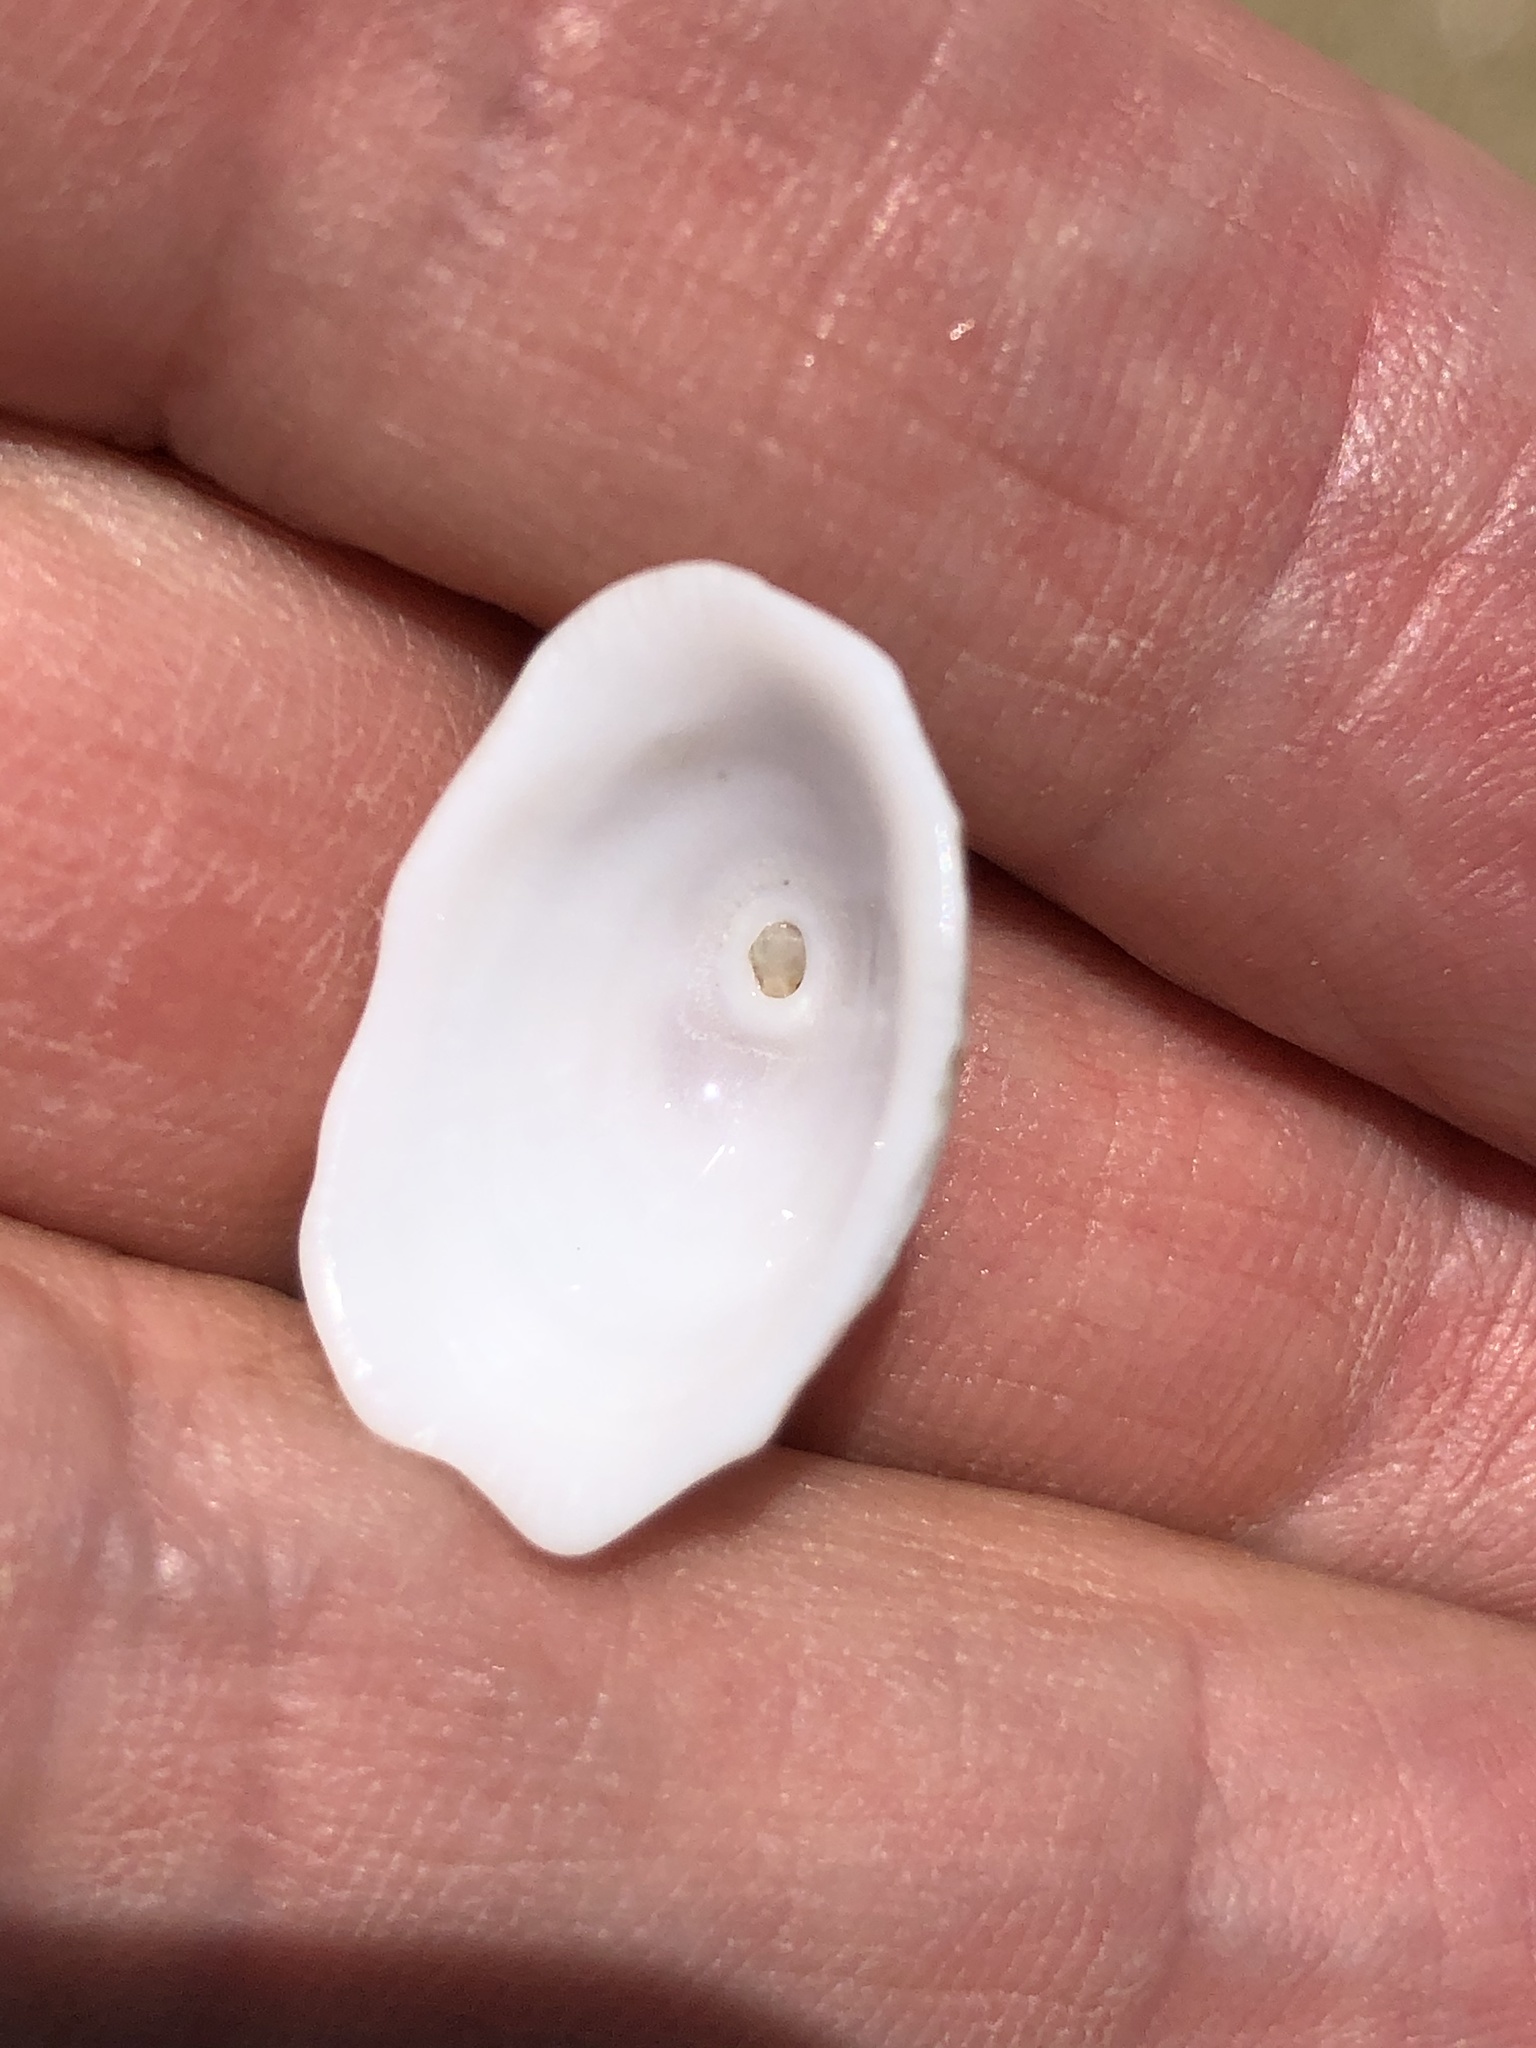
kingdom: Animalia
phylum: Mollusca
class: Gastropoda
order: Lepetellida
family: Fissurellidae
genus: Diodora
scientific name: Diodora aspera
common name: Rough keyhole limpet
